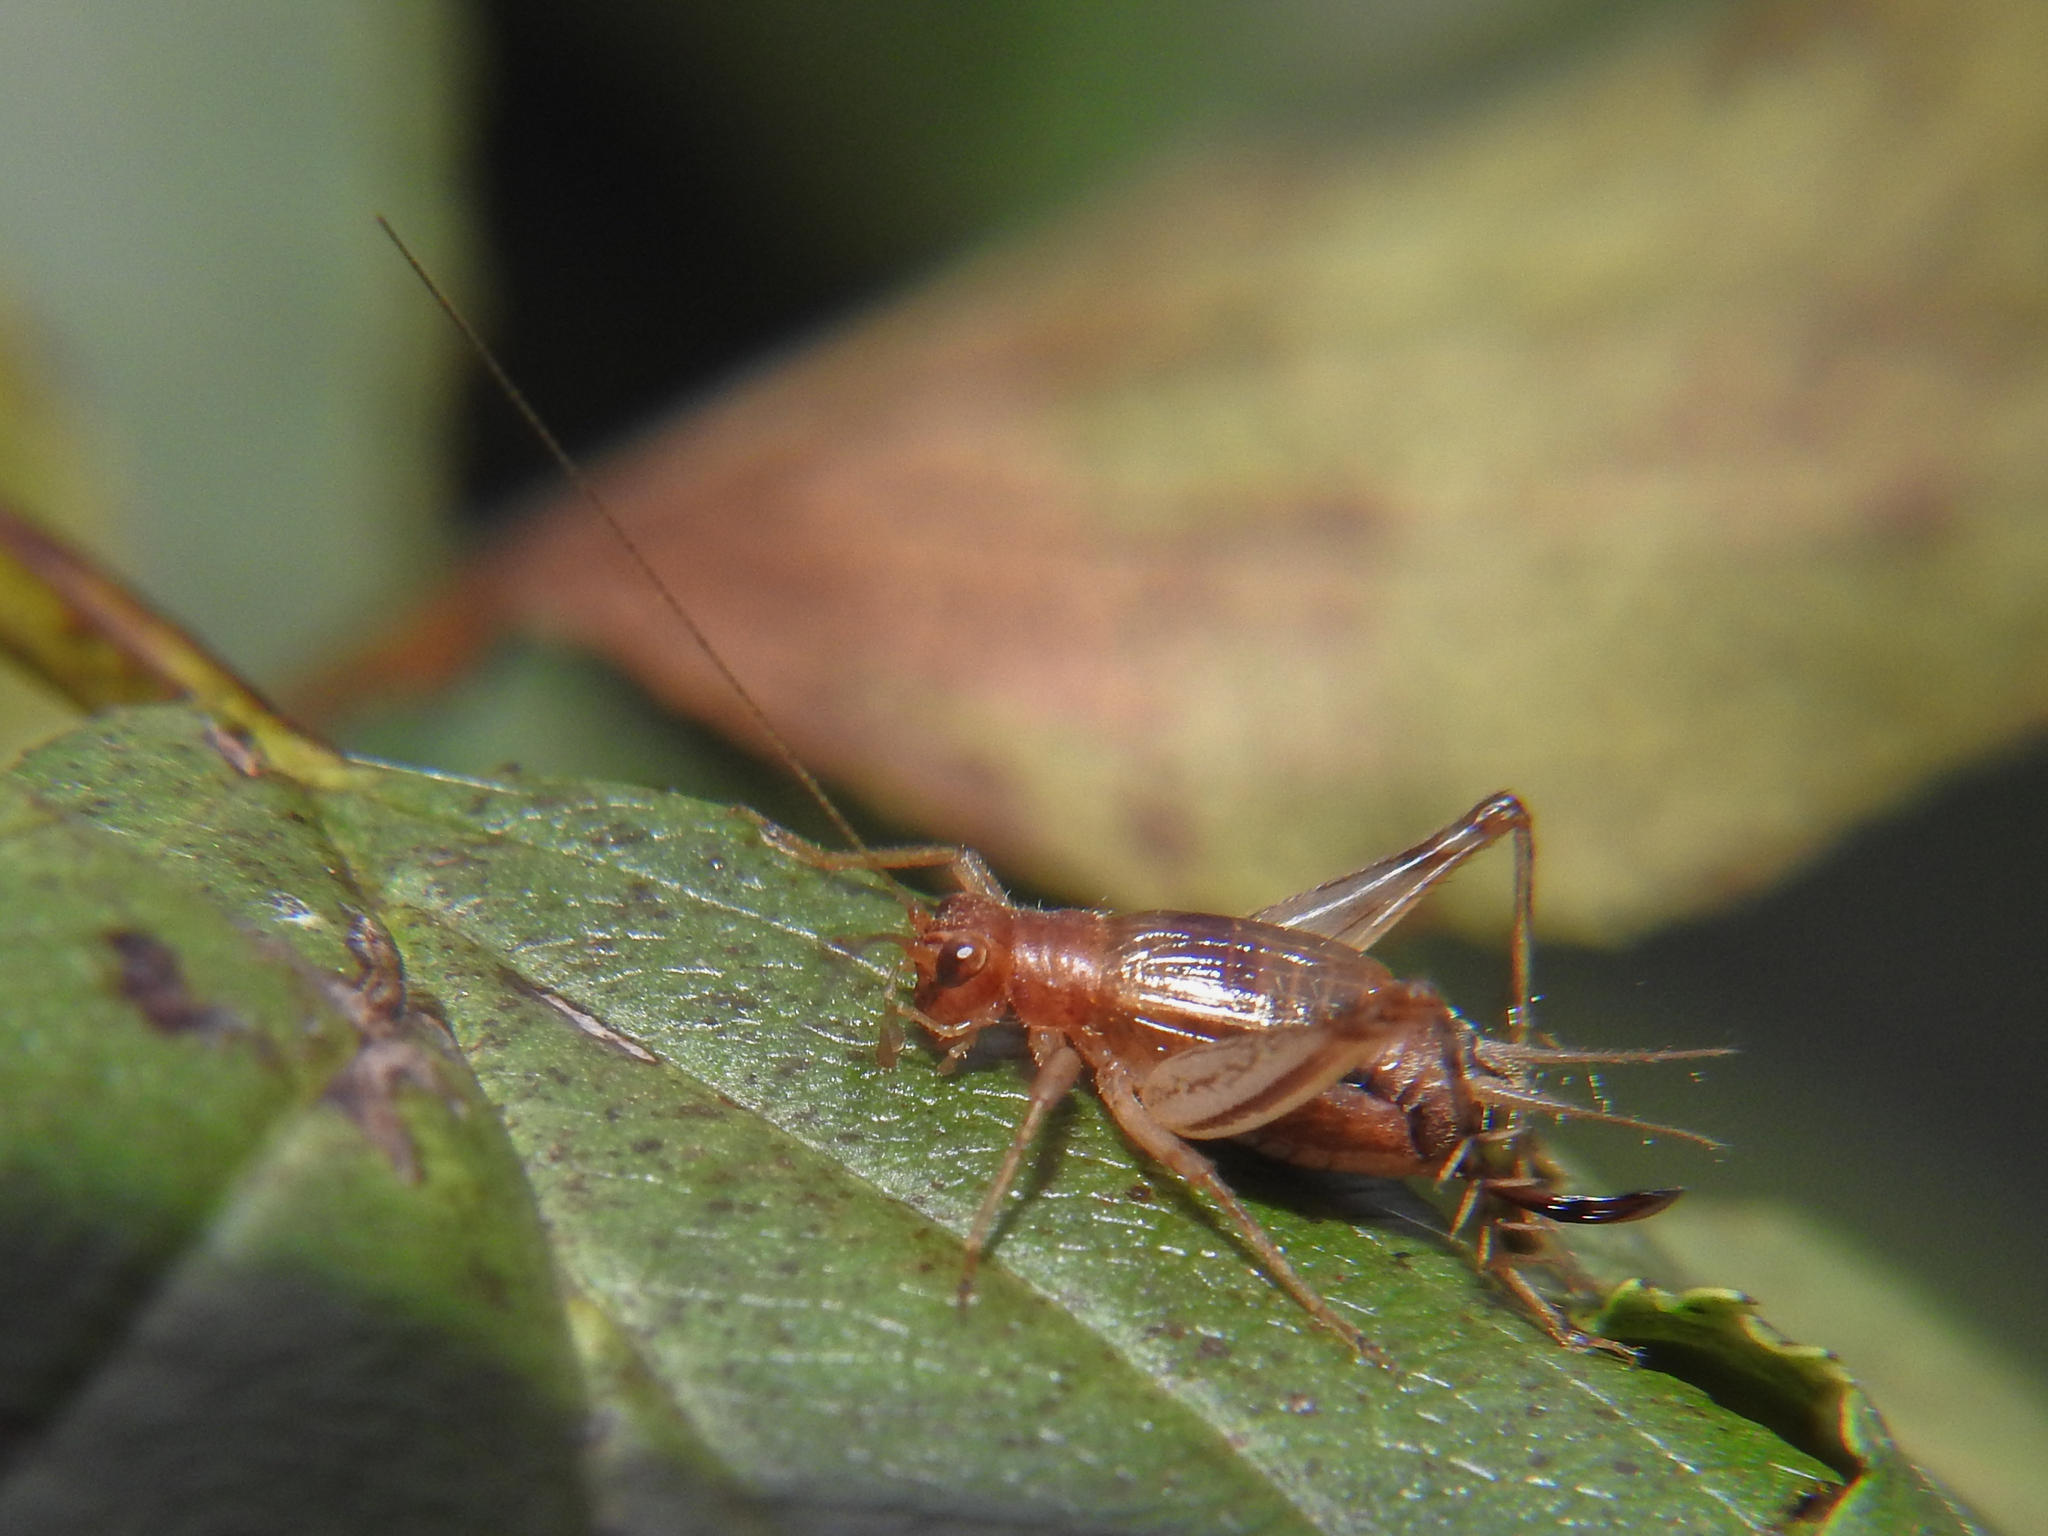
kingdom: Animalia
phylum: Arthropoda
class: Insecta
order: Orthoptera
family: Trigonidiidae
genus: Anaxipha
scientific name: Anaxipha exigua
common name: Say's bush cricket
